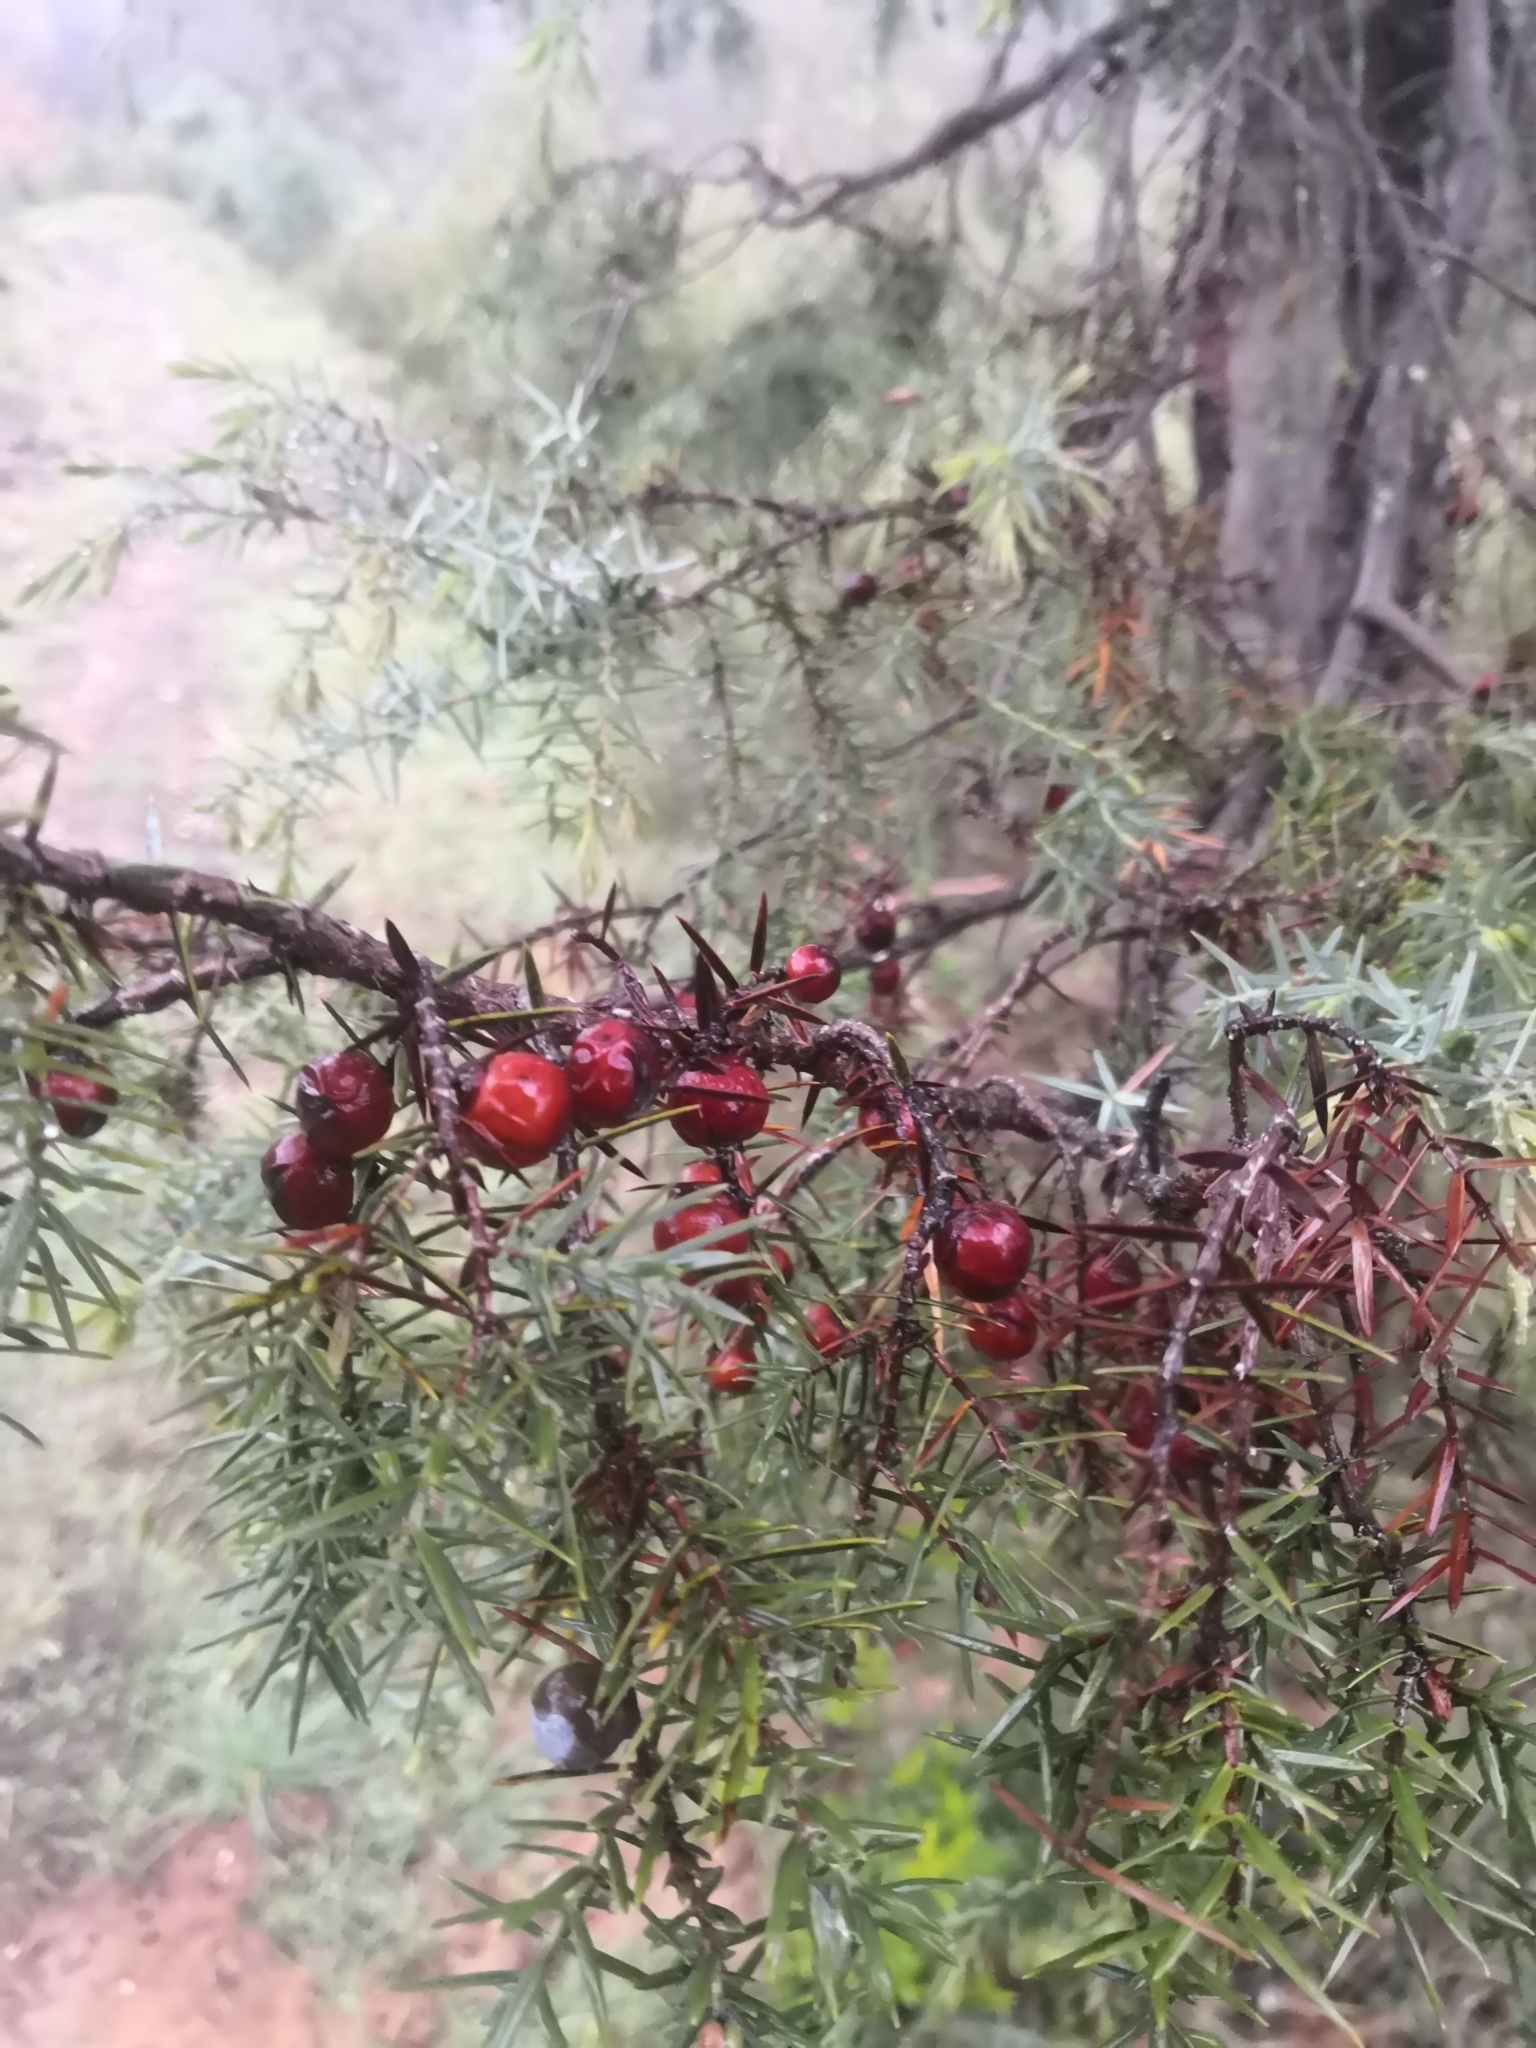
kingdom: Plantae
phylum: Tracheophyta
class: Pinopsida
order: Pinales
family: Cupressaceae
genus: Juniperus
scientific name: Juniperus oxycedrus
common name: Prickly juniper
